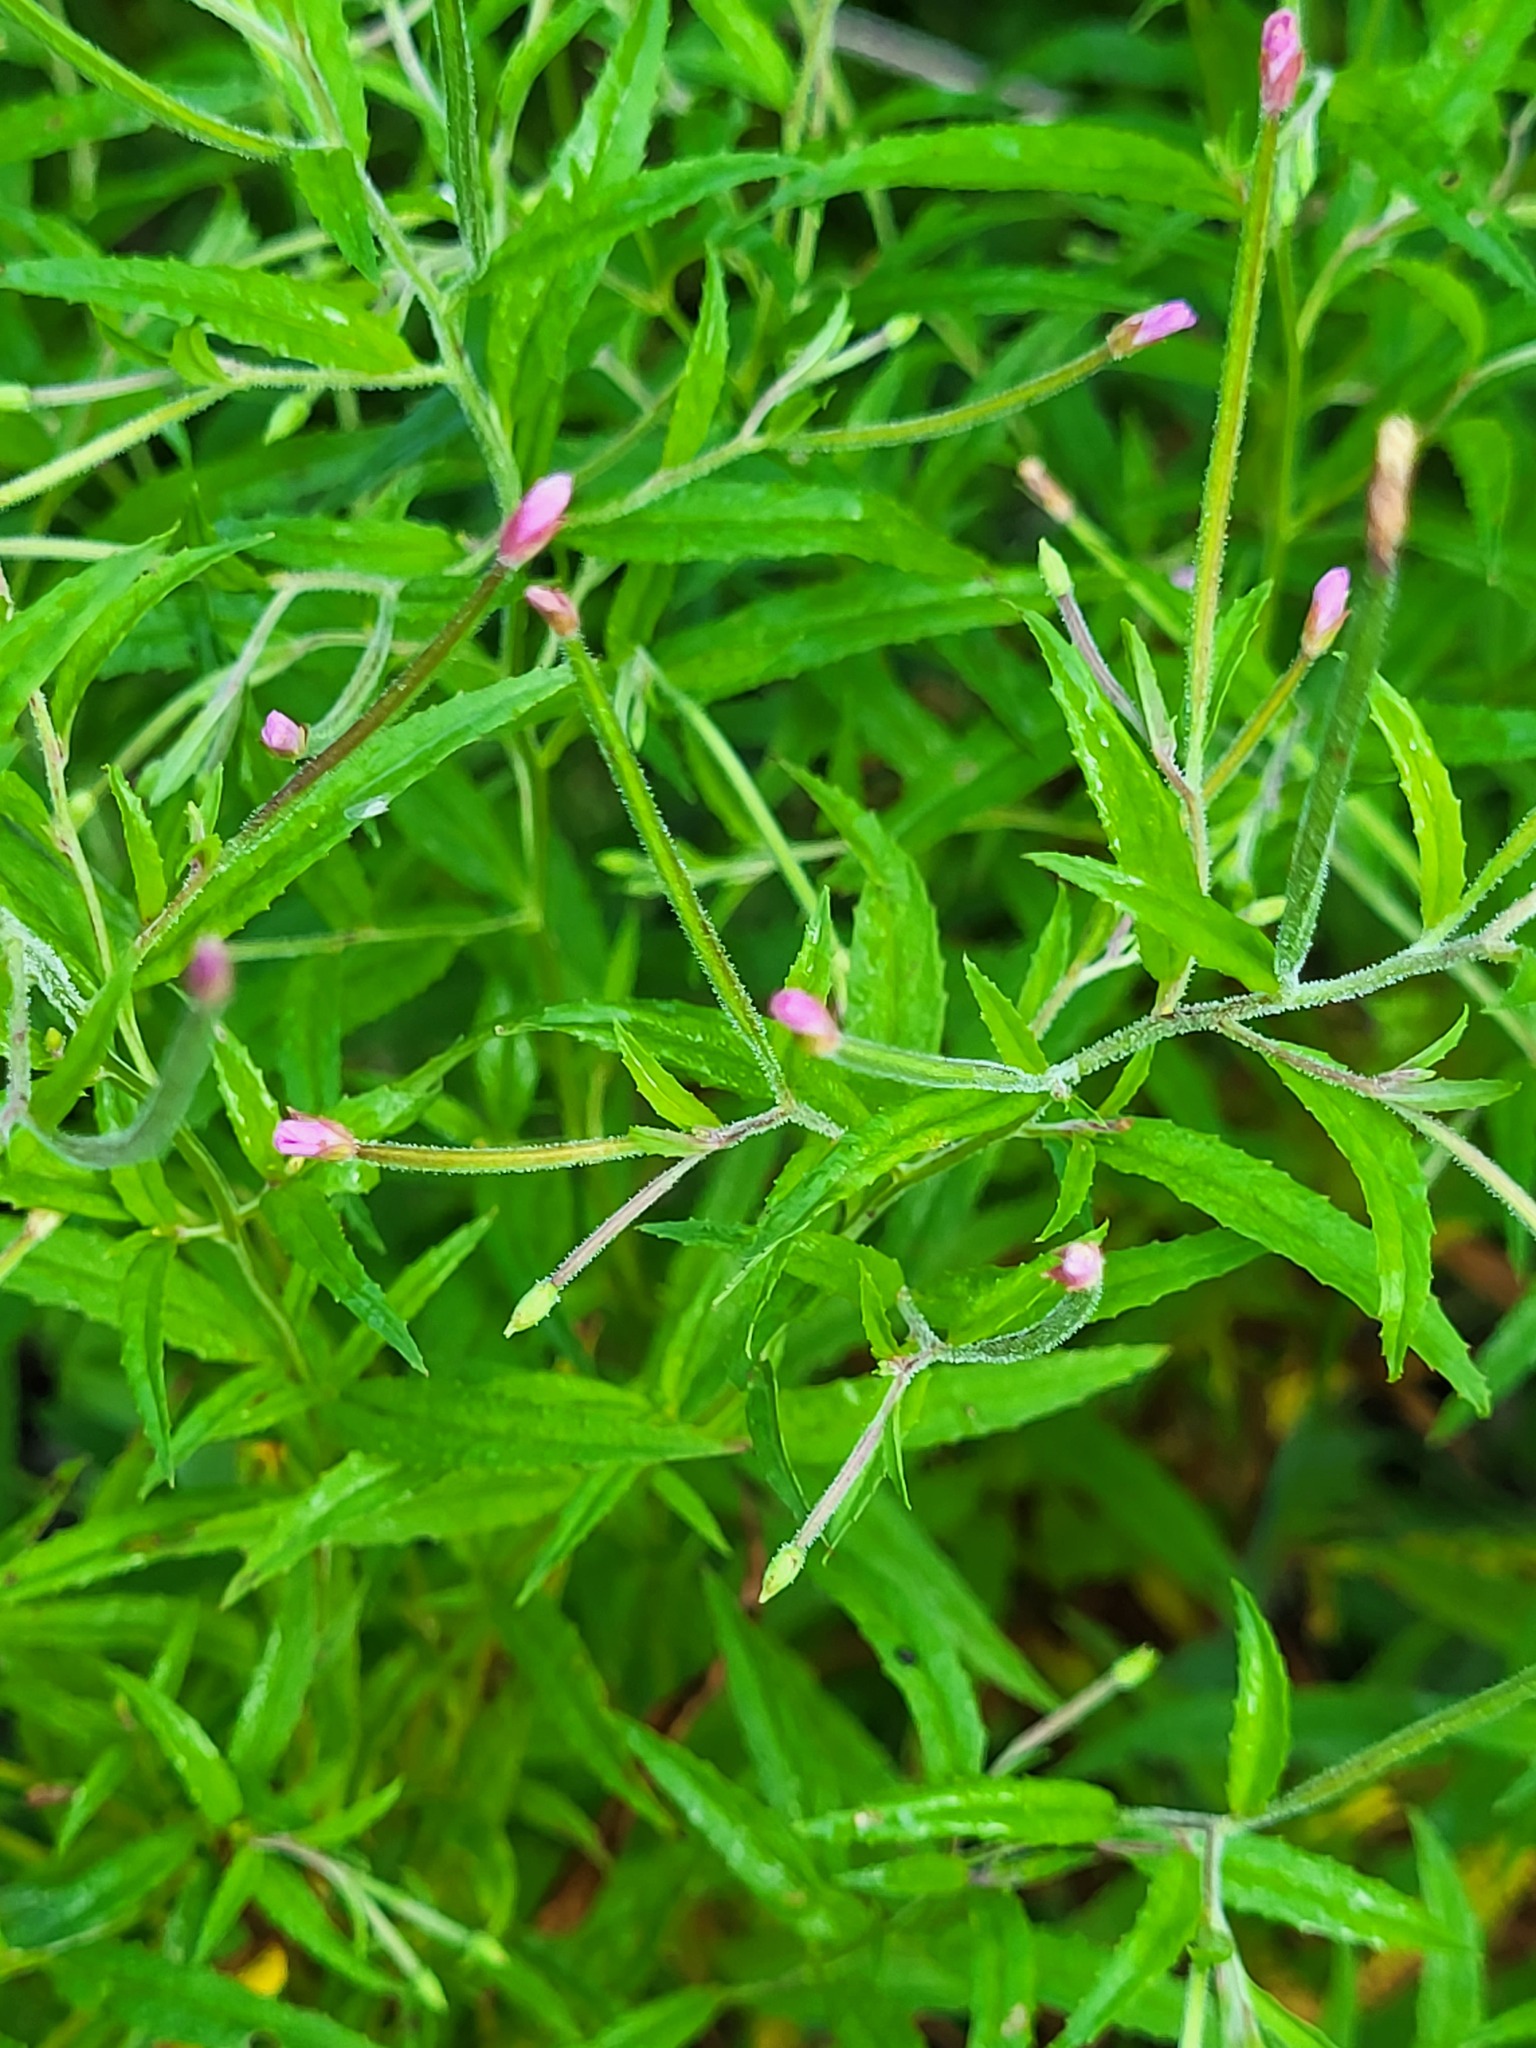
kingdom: Plantae
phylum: Tracheophyta
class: Magnoliopsida
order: Myrtales
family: Onagraceae
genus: Epilobium
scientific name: Epilobium coloratum
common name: Bronze willowherb
